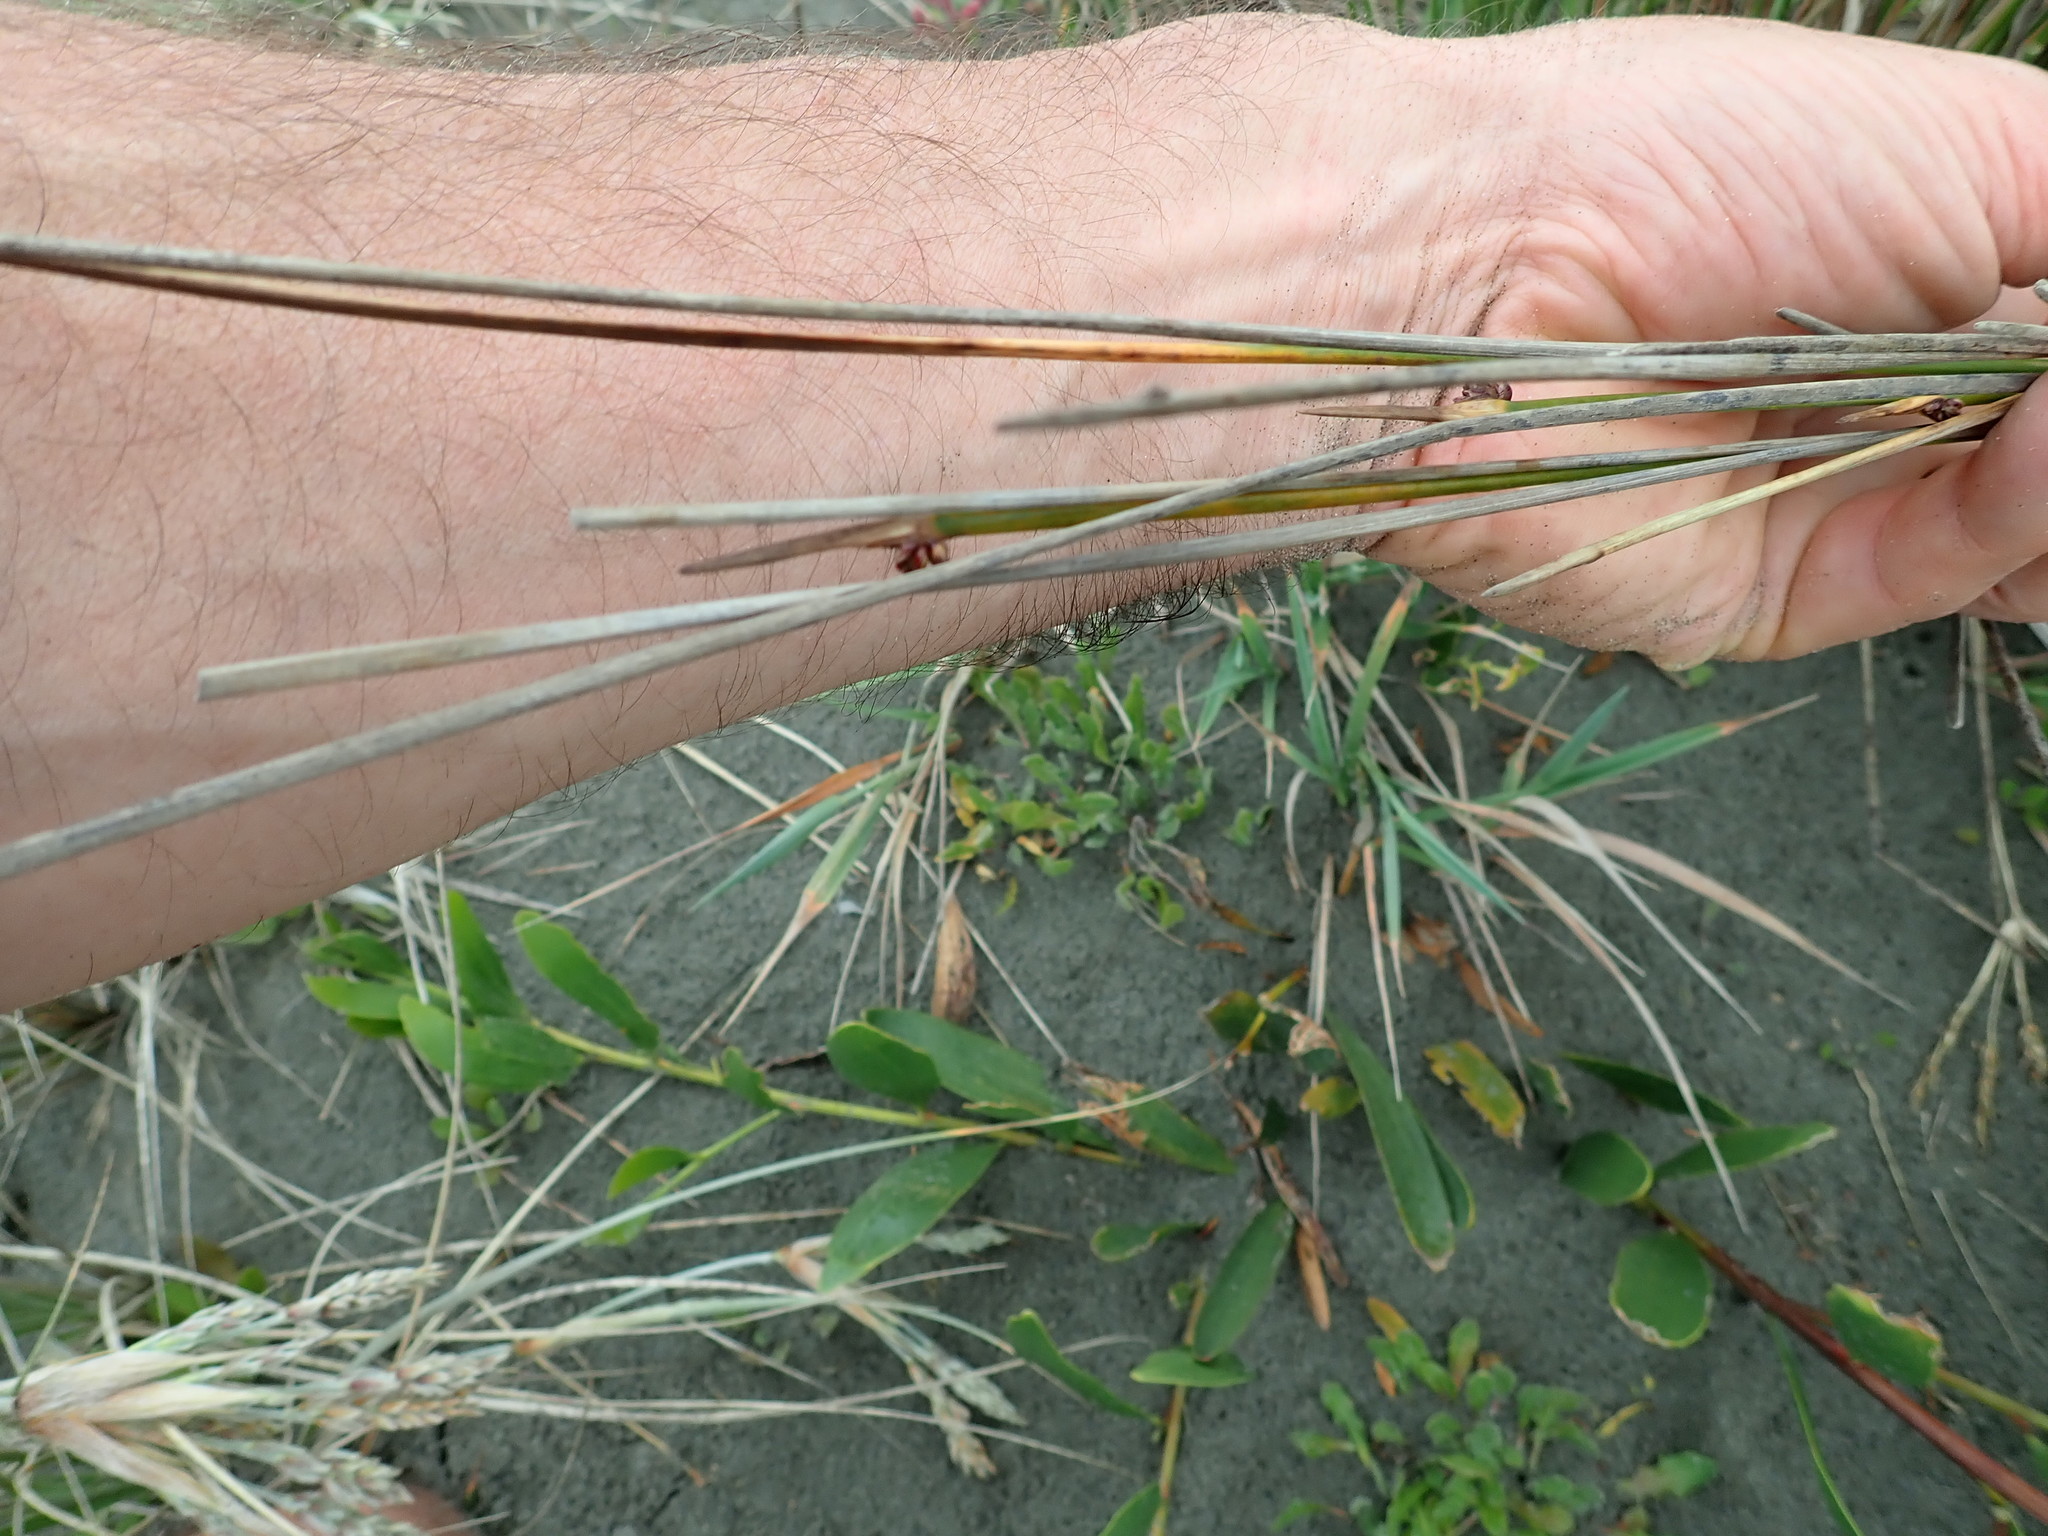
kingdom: Plantae
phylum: Tracheophyta
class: Liliopsida
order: Poales
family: Cyperaceae
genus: Ficinia
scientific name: Ficinia nodosa
